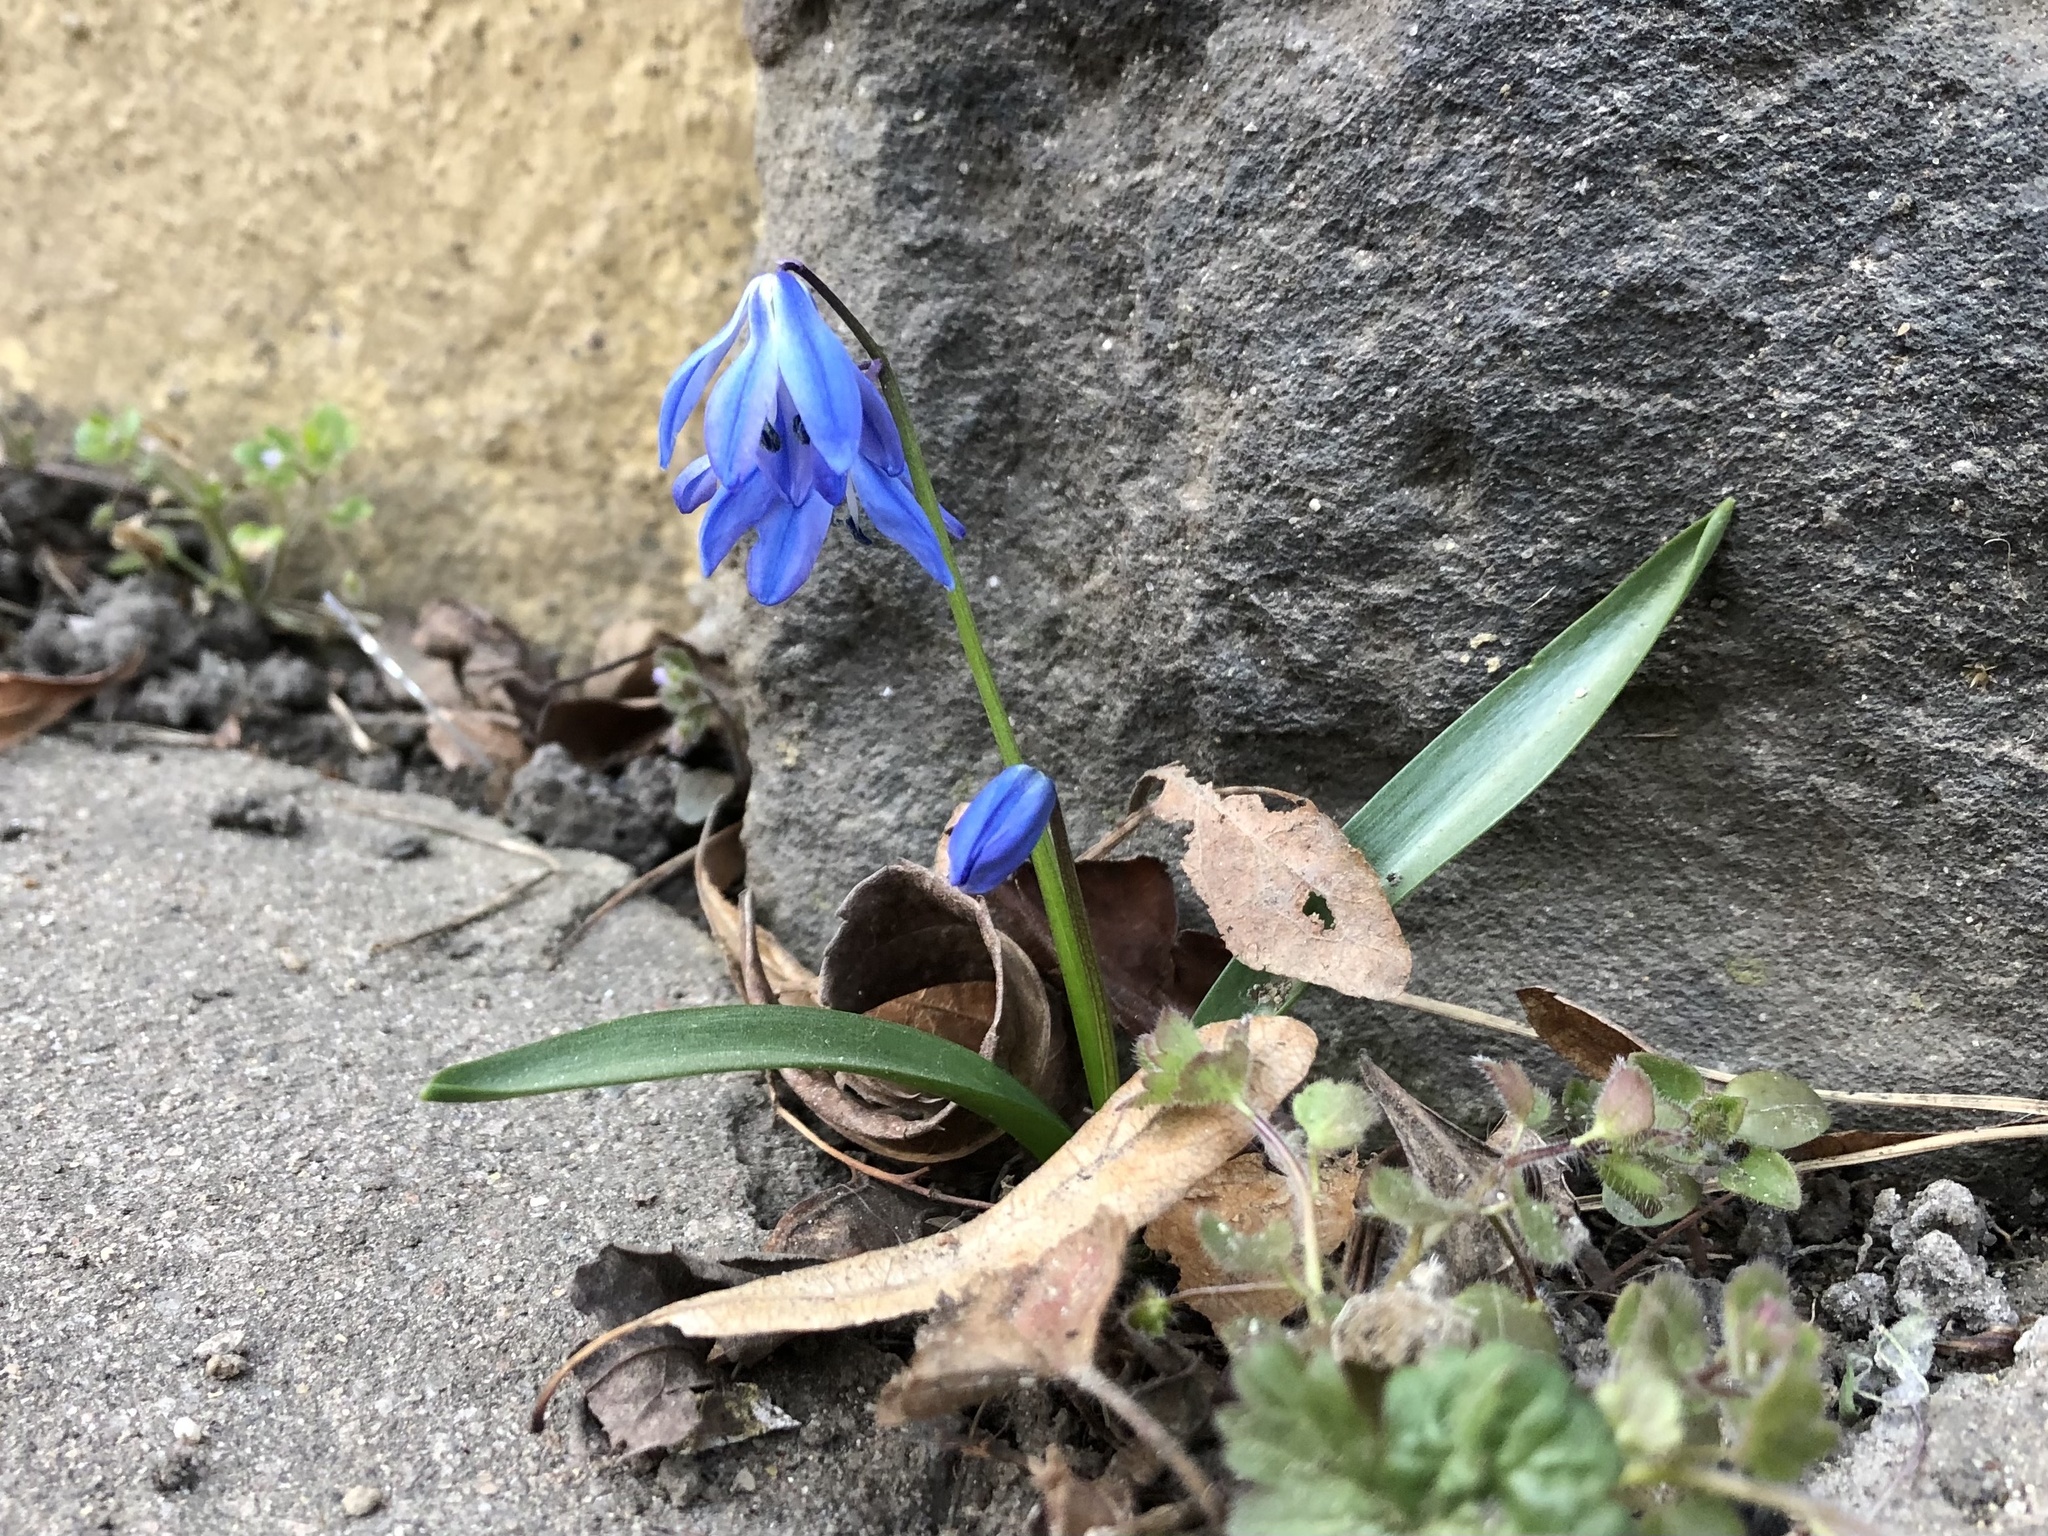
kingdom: Plantae
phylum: Tracheophyta
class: Liliopsida
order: Asparagales
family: Asparagaceae
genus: Scilla
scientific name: Scilla siberica
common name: Siberian squill
